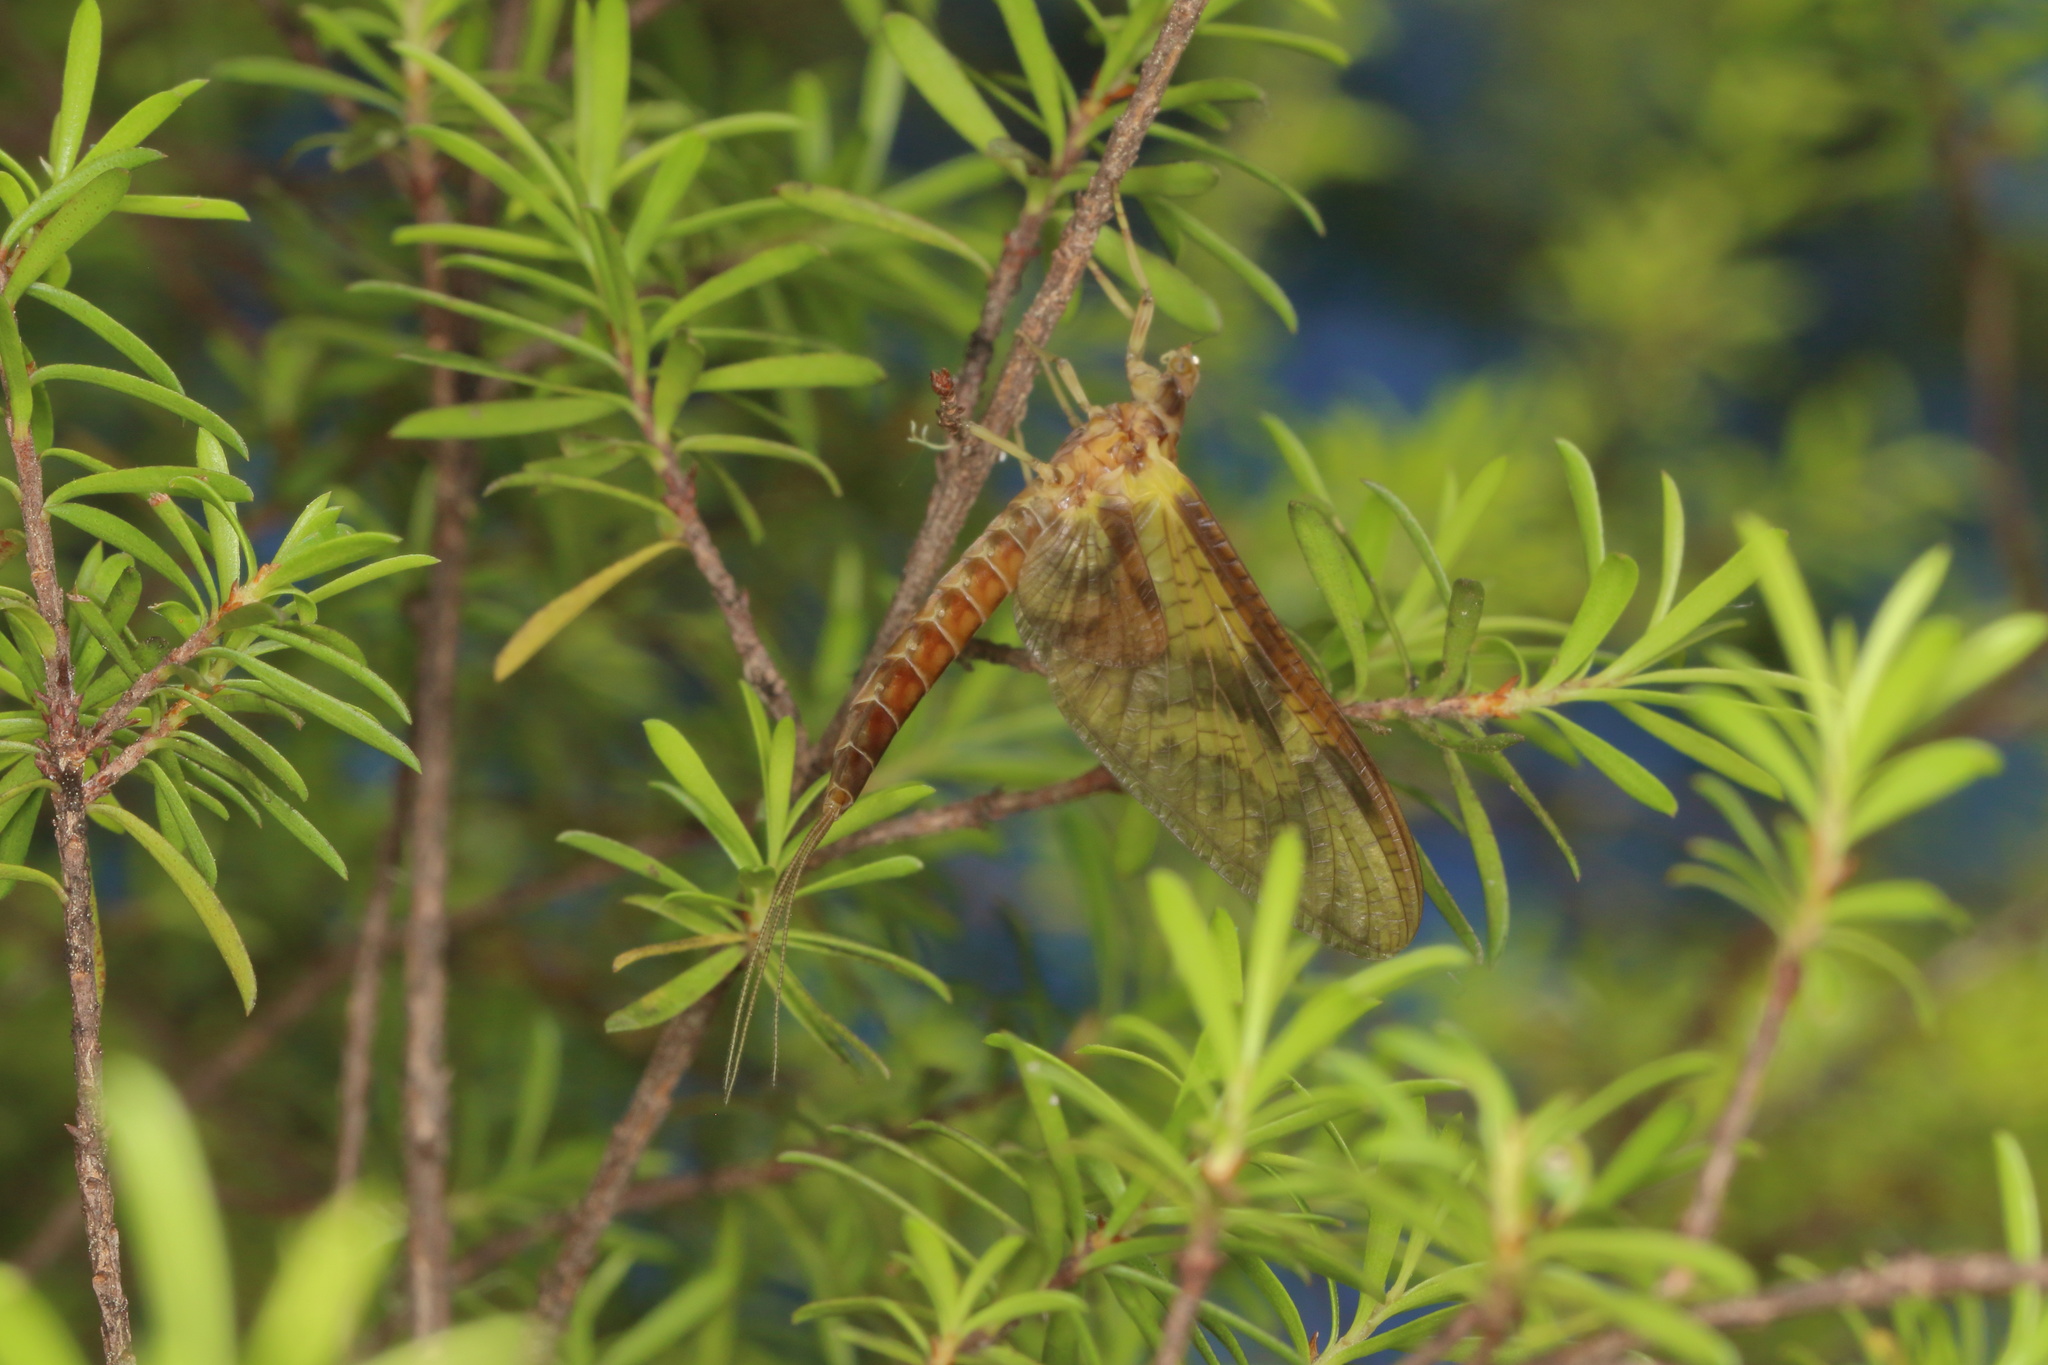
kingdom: Animalia
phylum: Arthropoda
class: Insecta
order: Ephemeroptera
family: Ichthybotidae
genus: Ichthybotus
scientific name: Ichthybotus bicolor
